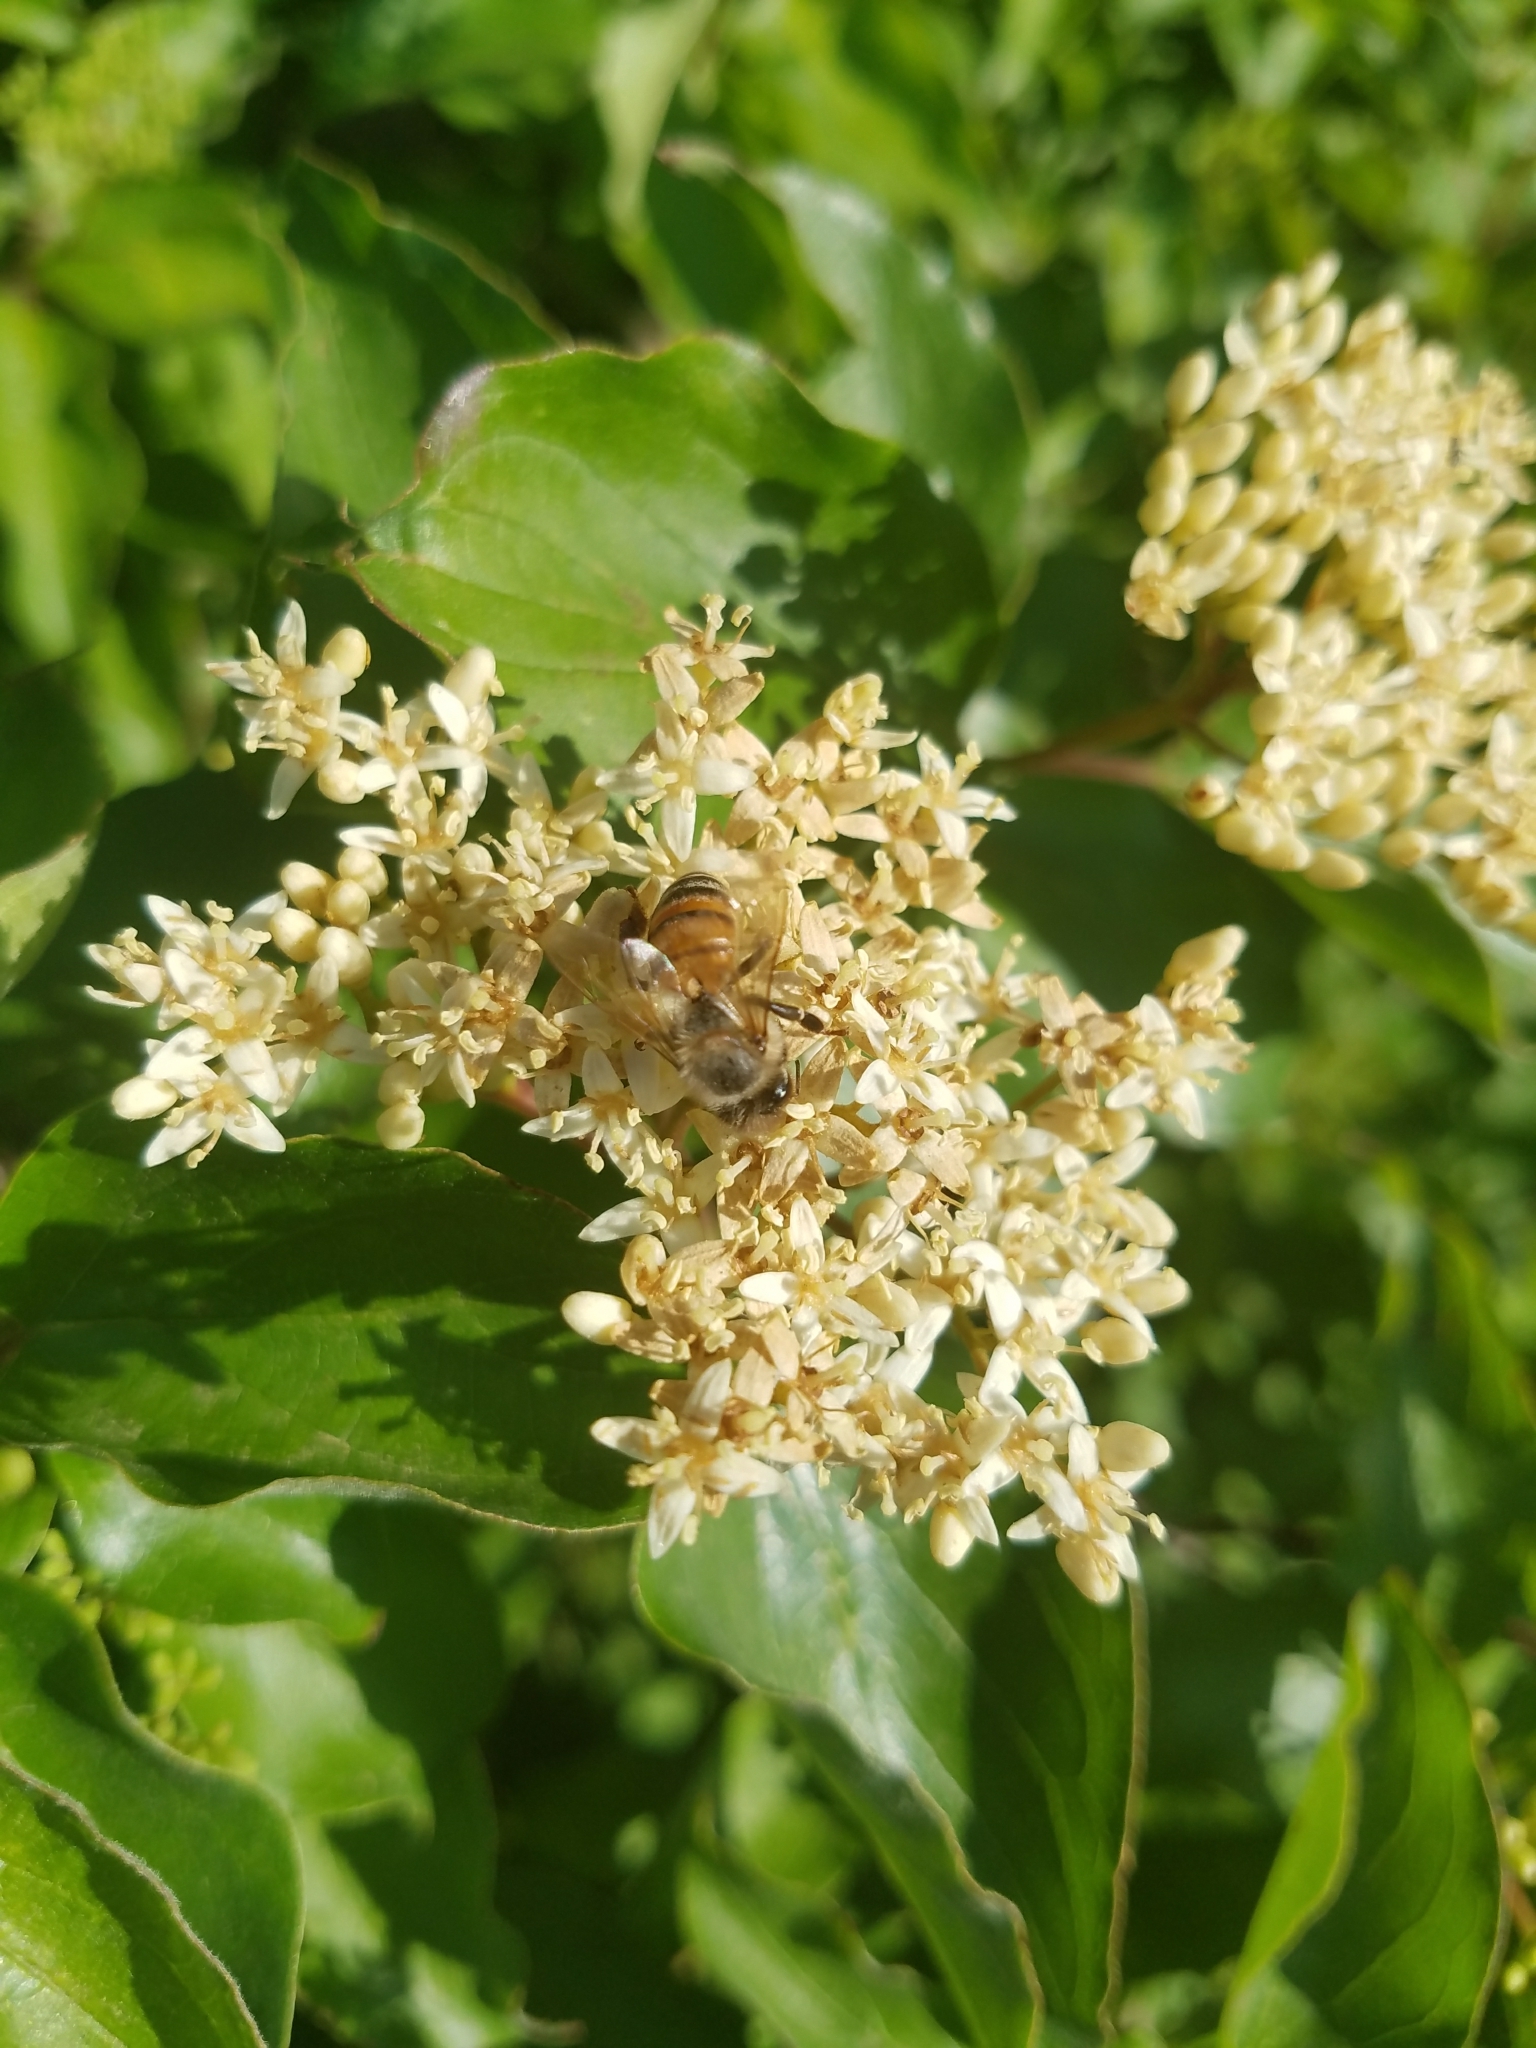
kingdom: Animalia
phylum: Arthropoda
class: Insecta
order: Hymenoptera
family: Apidae
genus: Apis
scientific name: Apis mellifera
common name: Honey bee
